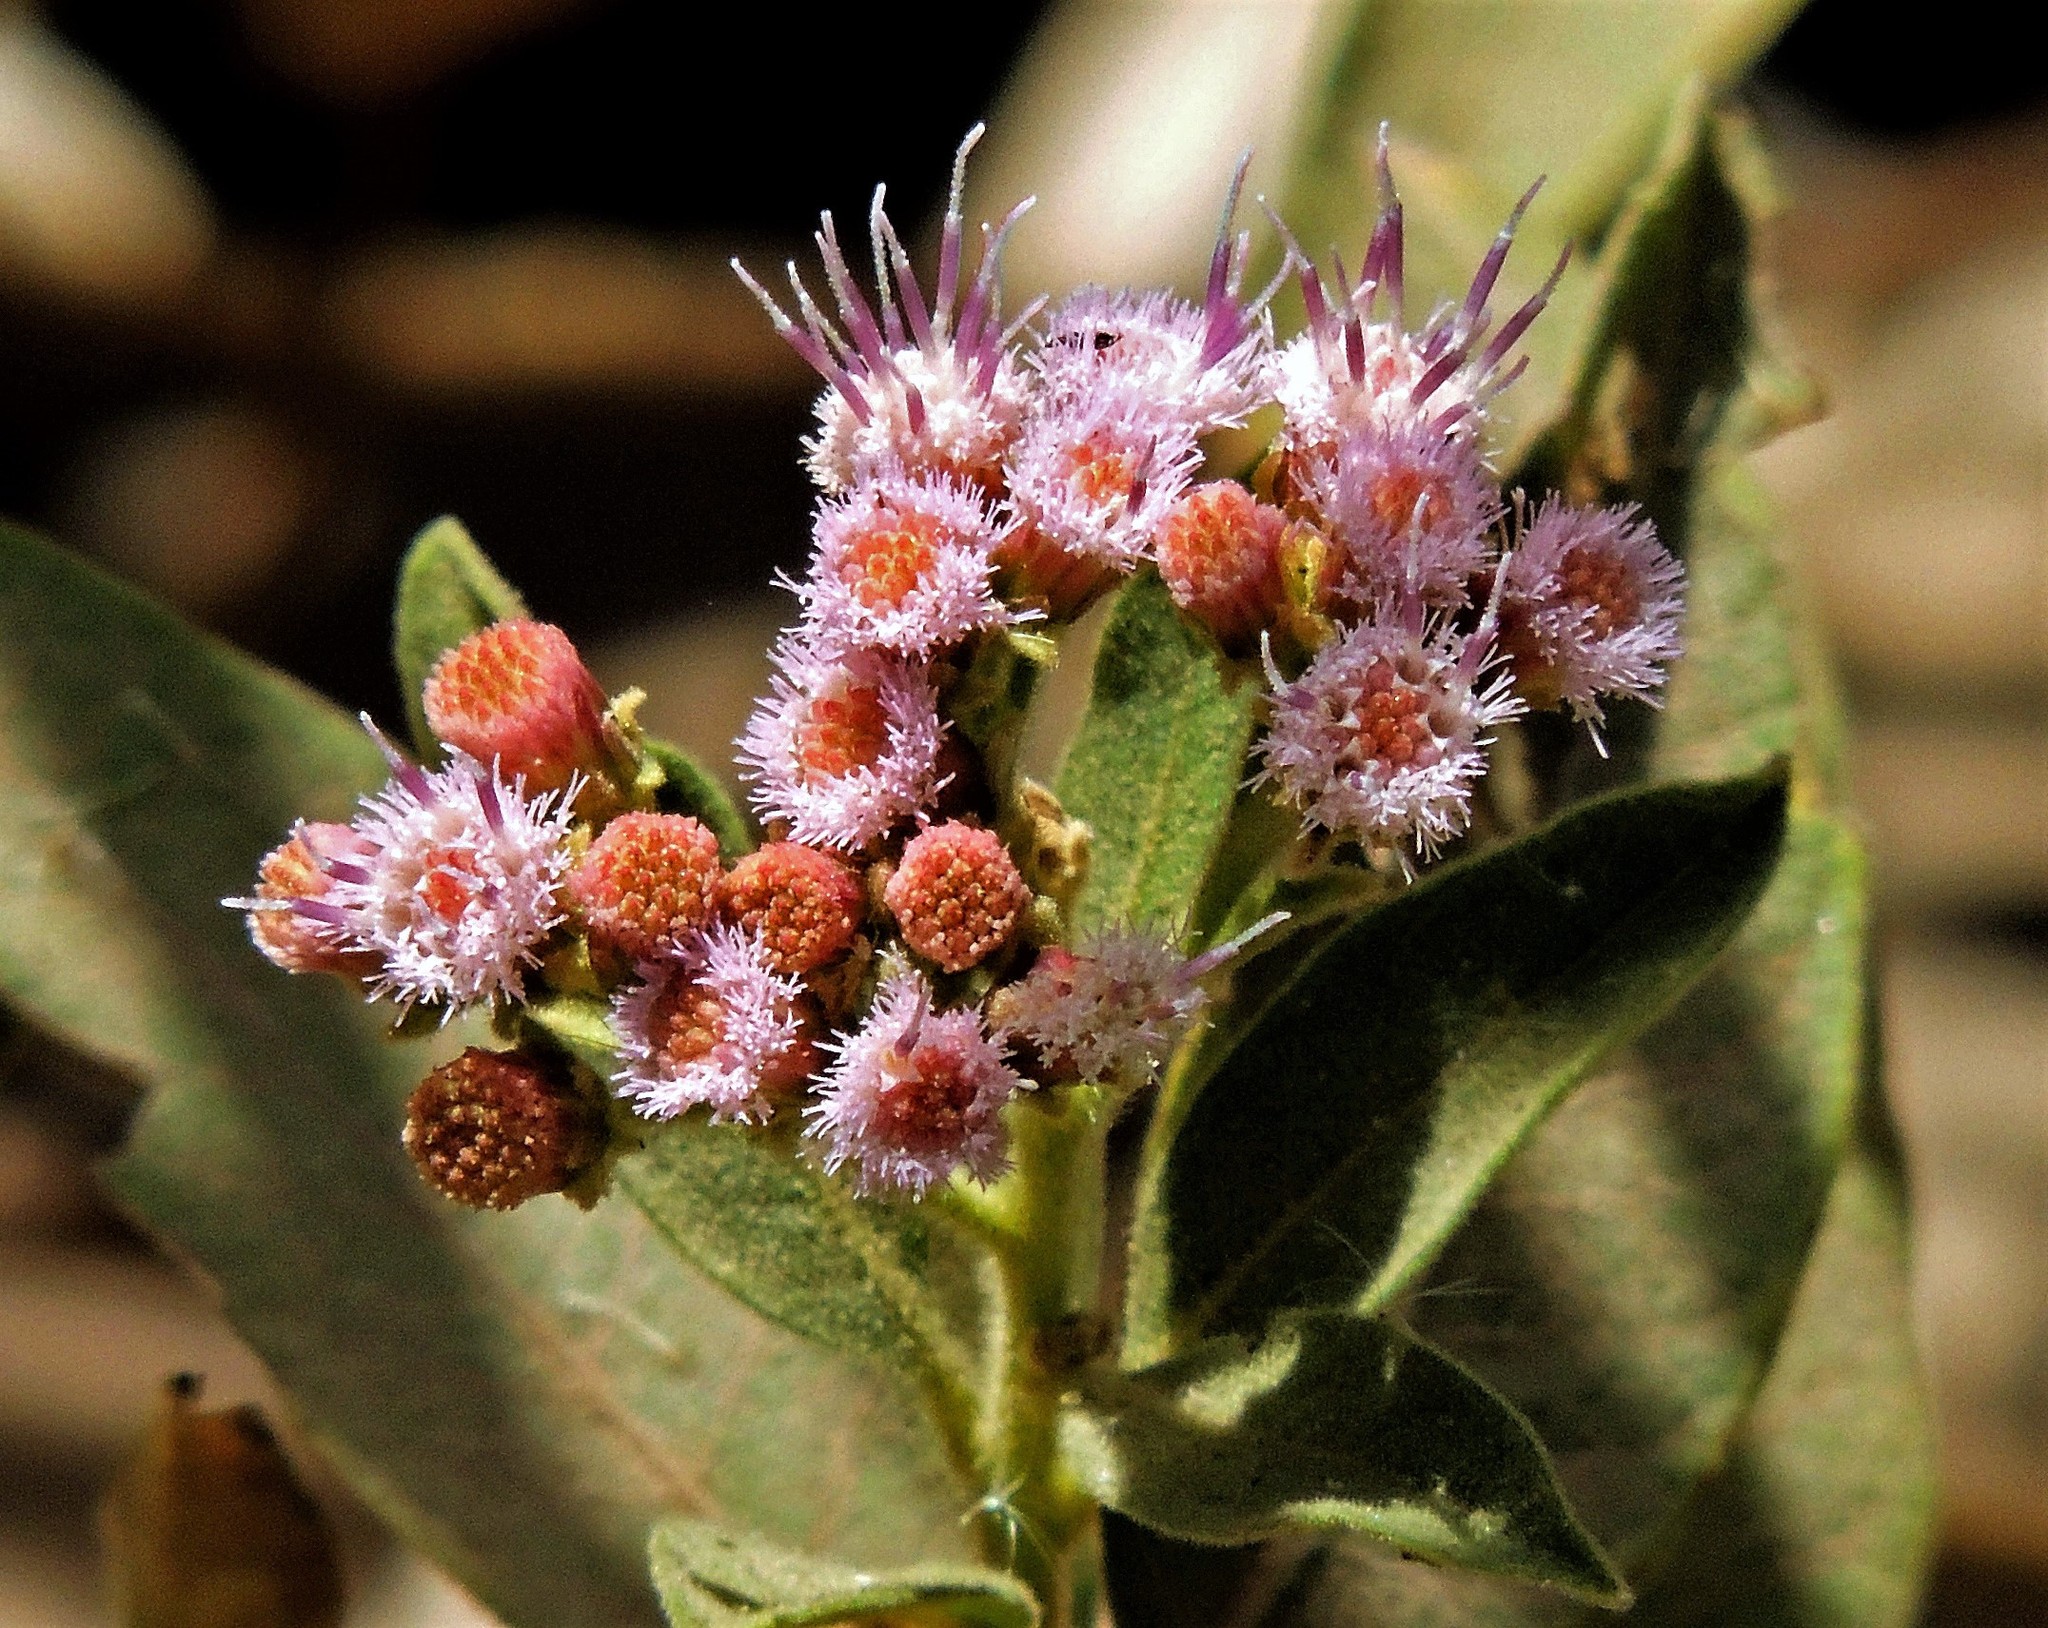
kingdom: Plantae
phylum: Tracheophyta
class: Magnoliopsida
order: Asterales
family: Asteraceae
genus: Tessaria
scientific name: Tessaria fastigiata
